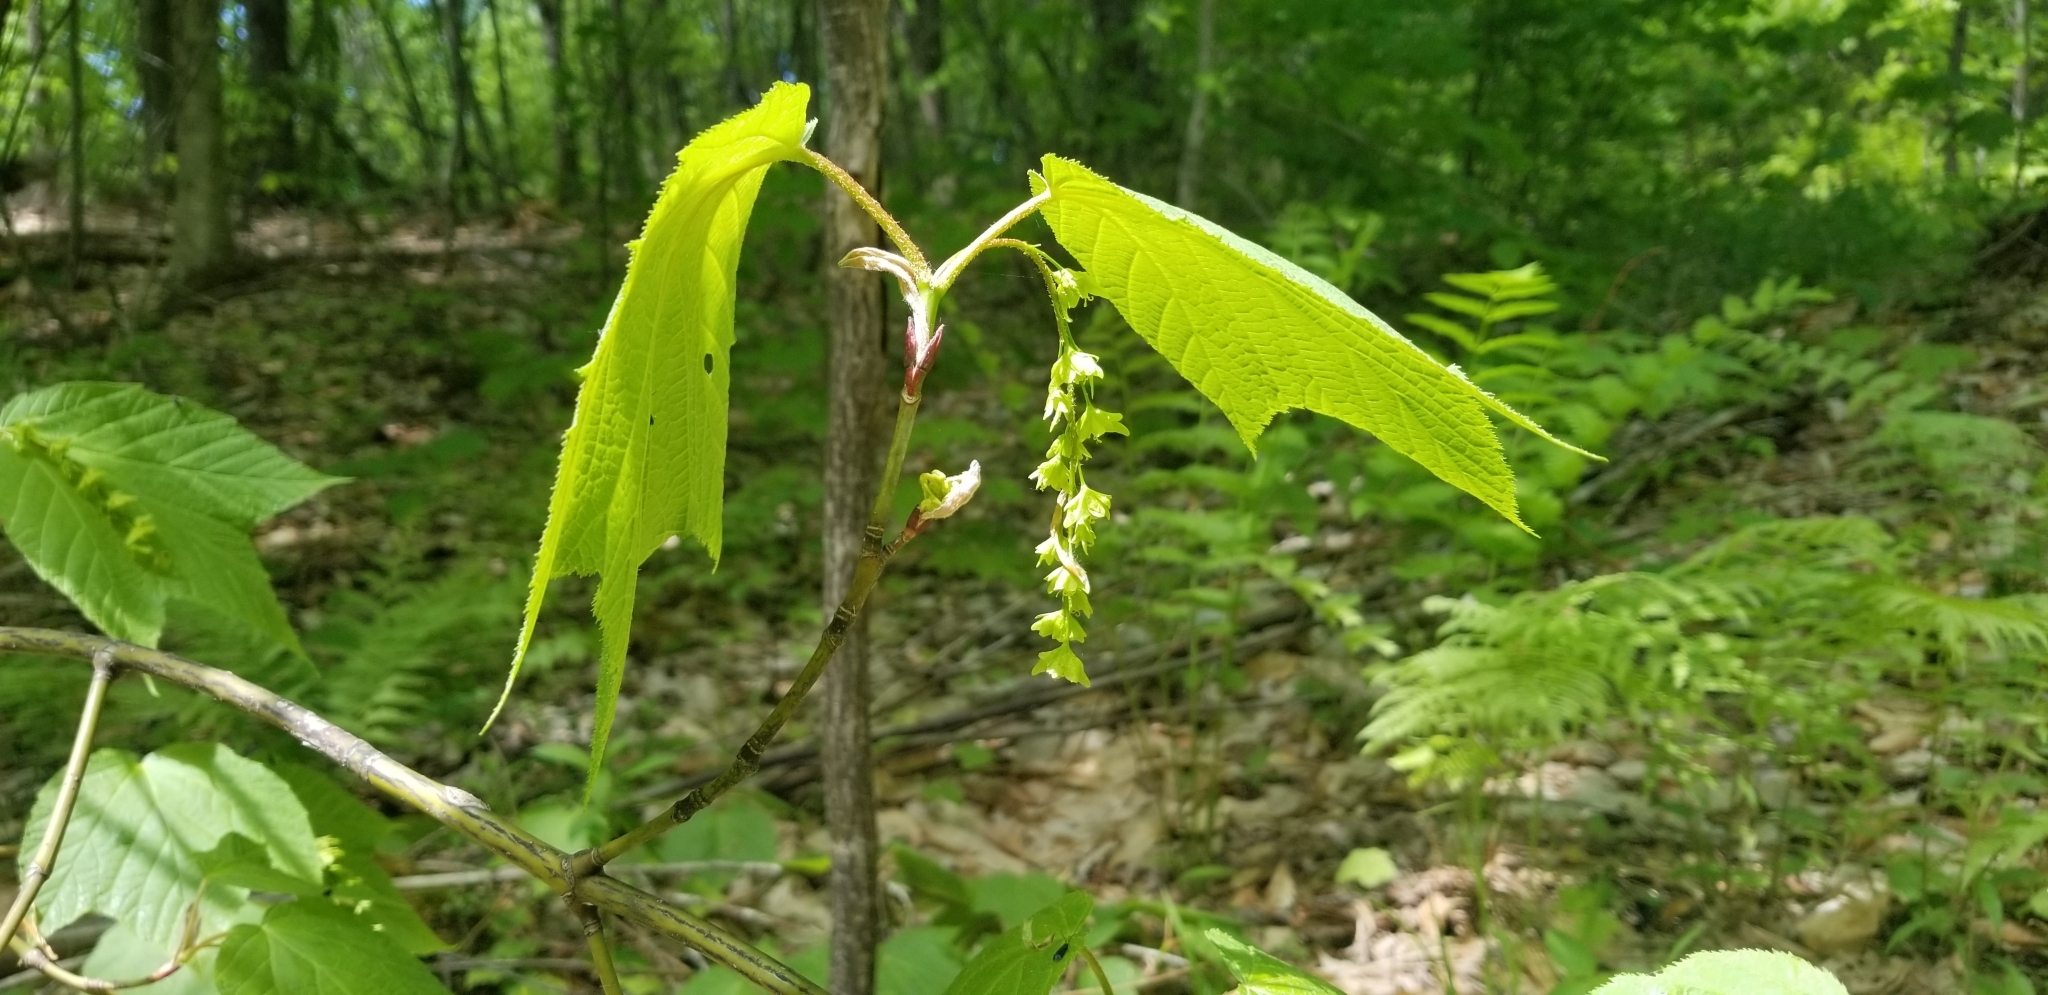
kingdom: Plantae
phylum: Tracheophyta
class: Magnoliopsida
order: Sapindales
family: Sapindaceae
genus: Acer
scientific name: Acer pensylvanicum
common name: Moosewood
